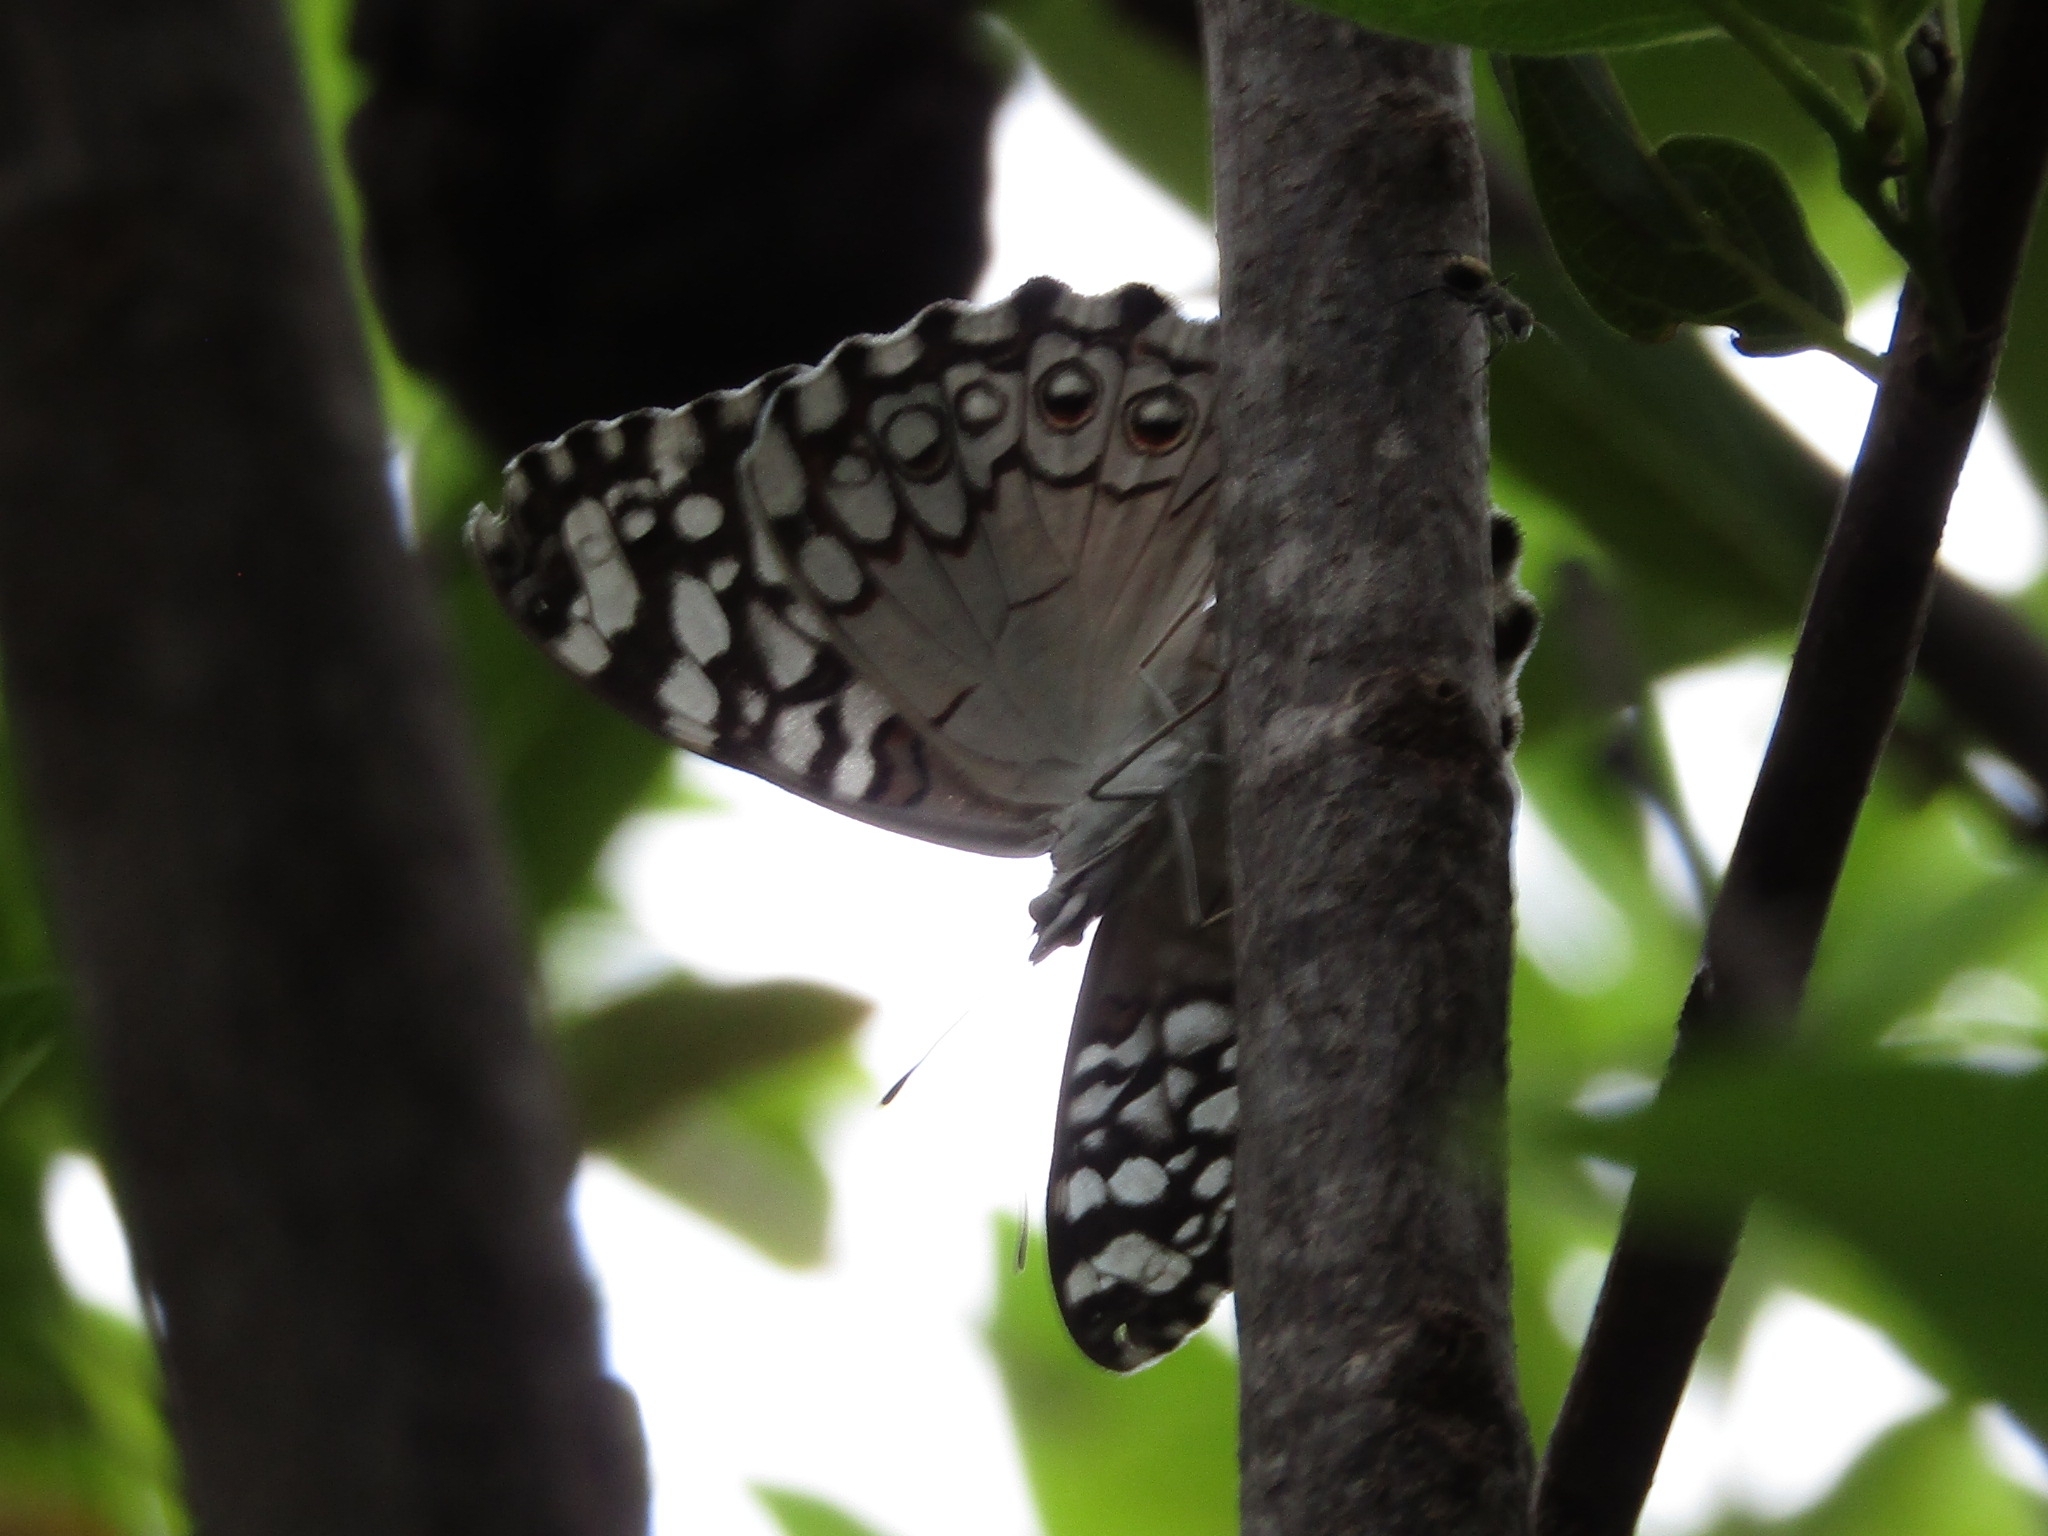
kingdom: Animalia
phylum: Arthropoda
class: Insecta
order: Lepidoptera
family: Nymphalidae
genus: Hamadryas
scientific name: Hamadryas februa
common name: Gray cracker
